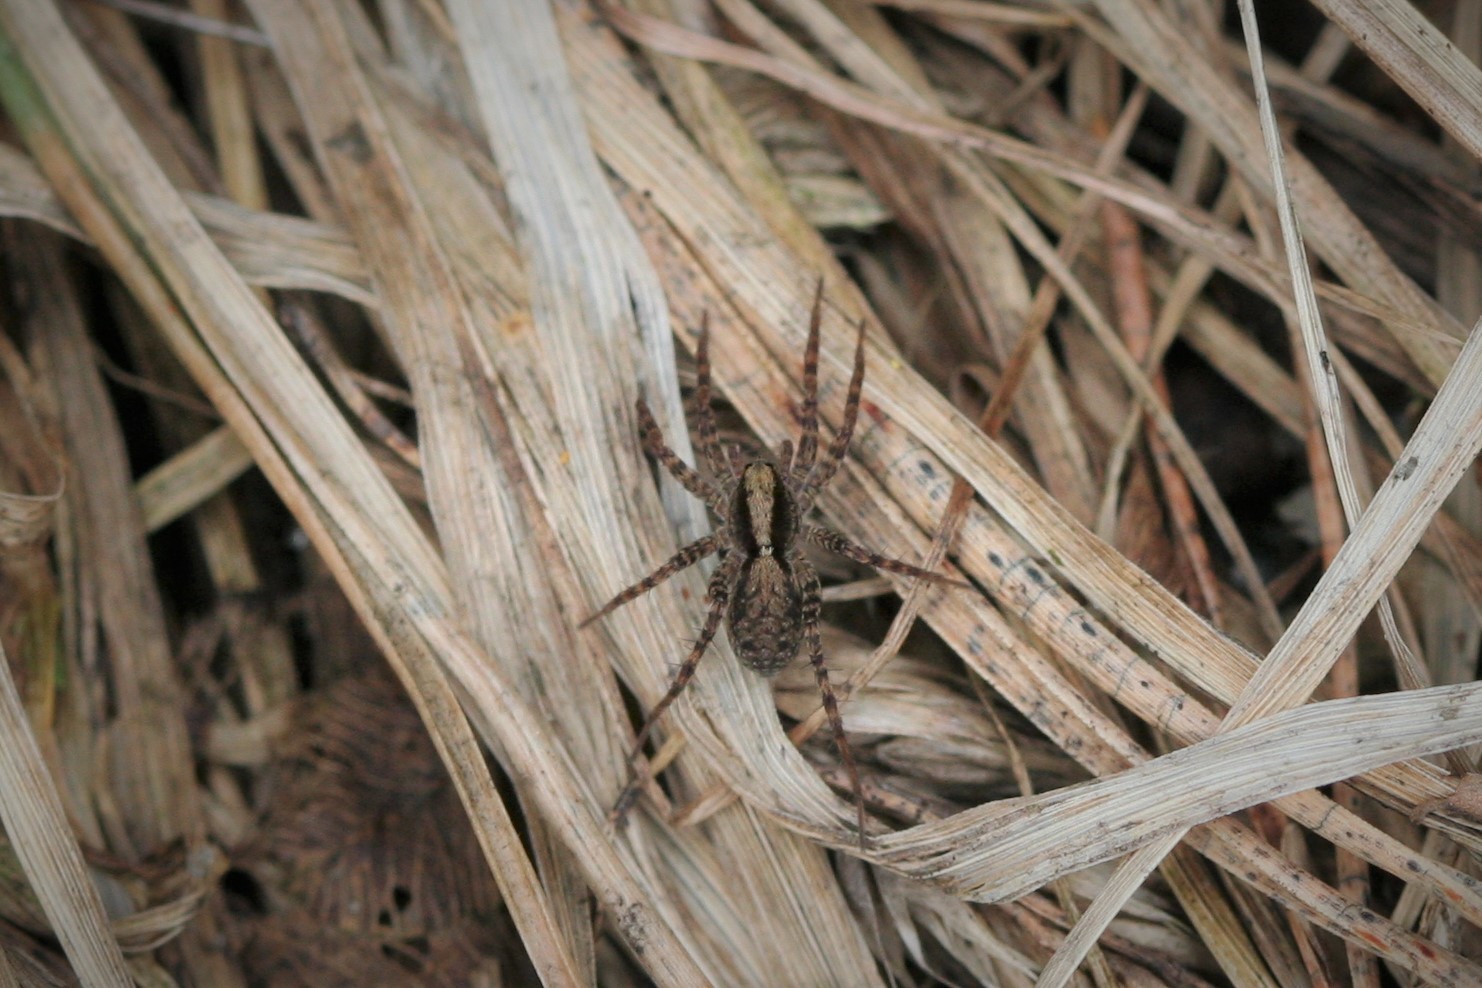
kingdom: Animalia
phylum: Arthropoda
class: Arachnida
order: Araneae
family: Lycosidae
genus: Pardosa
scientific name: Pardosa
